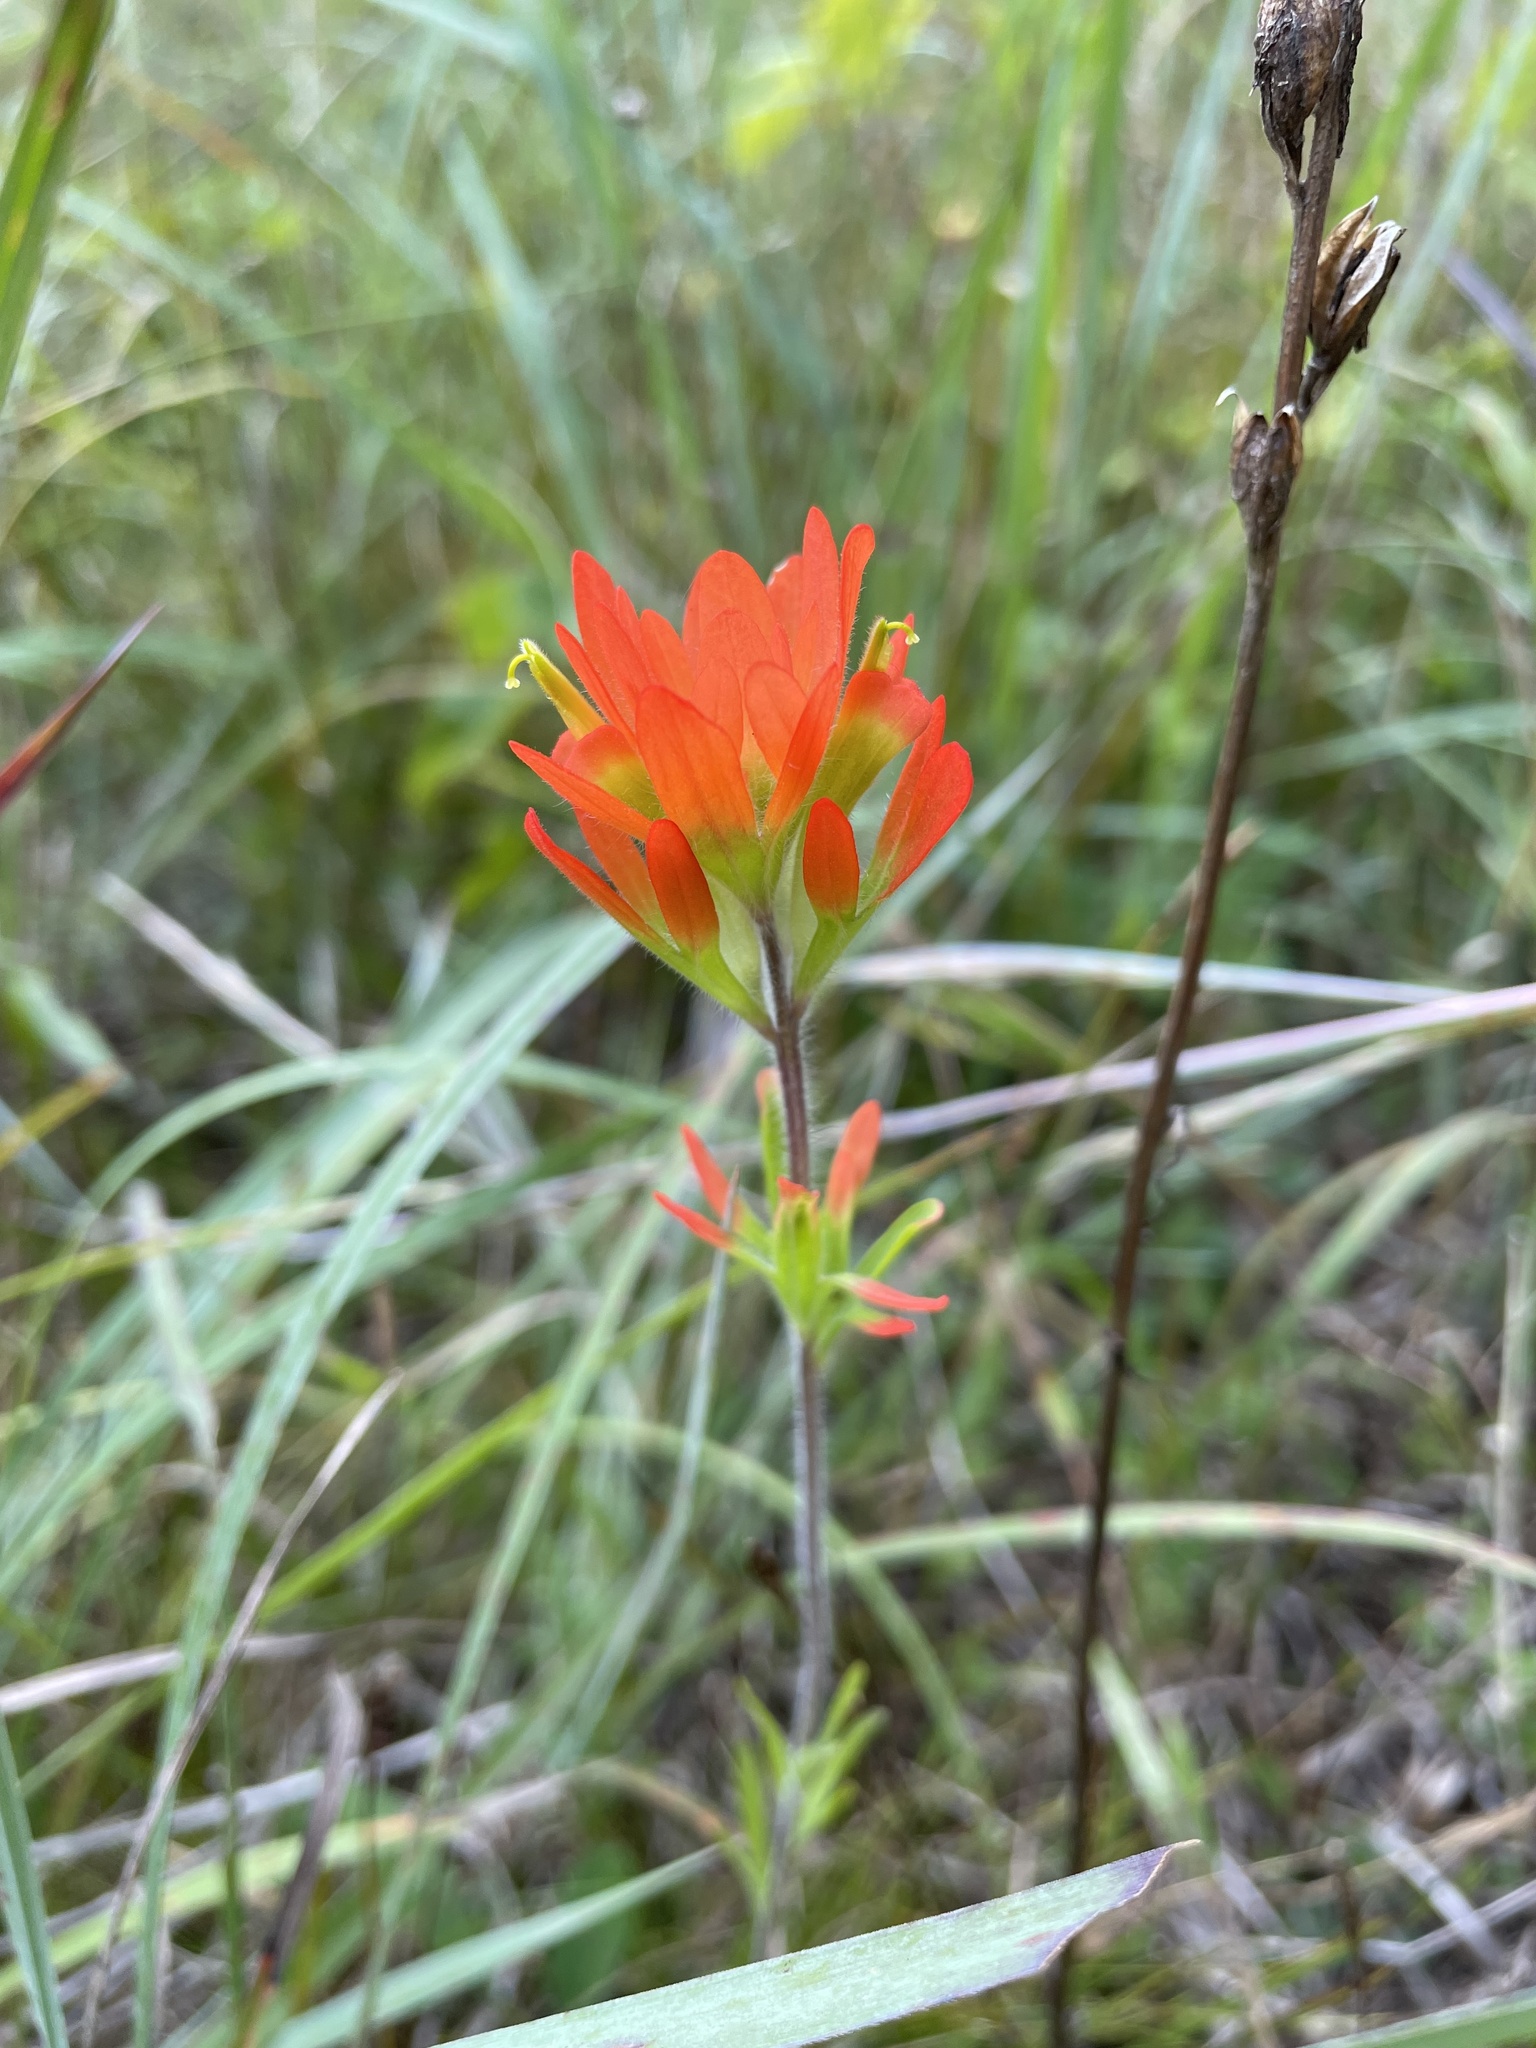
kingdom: Plantae
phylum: Tracheophyta
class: Magnoliopsida
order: Lamiales
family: Orobanchaceae
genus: Castilleja
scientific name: Castilleja coccinea
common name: Scarlet paintbrush
